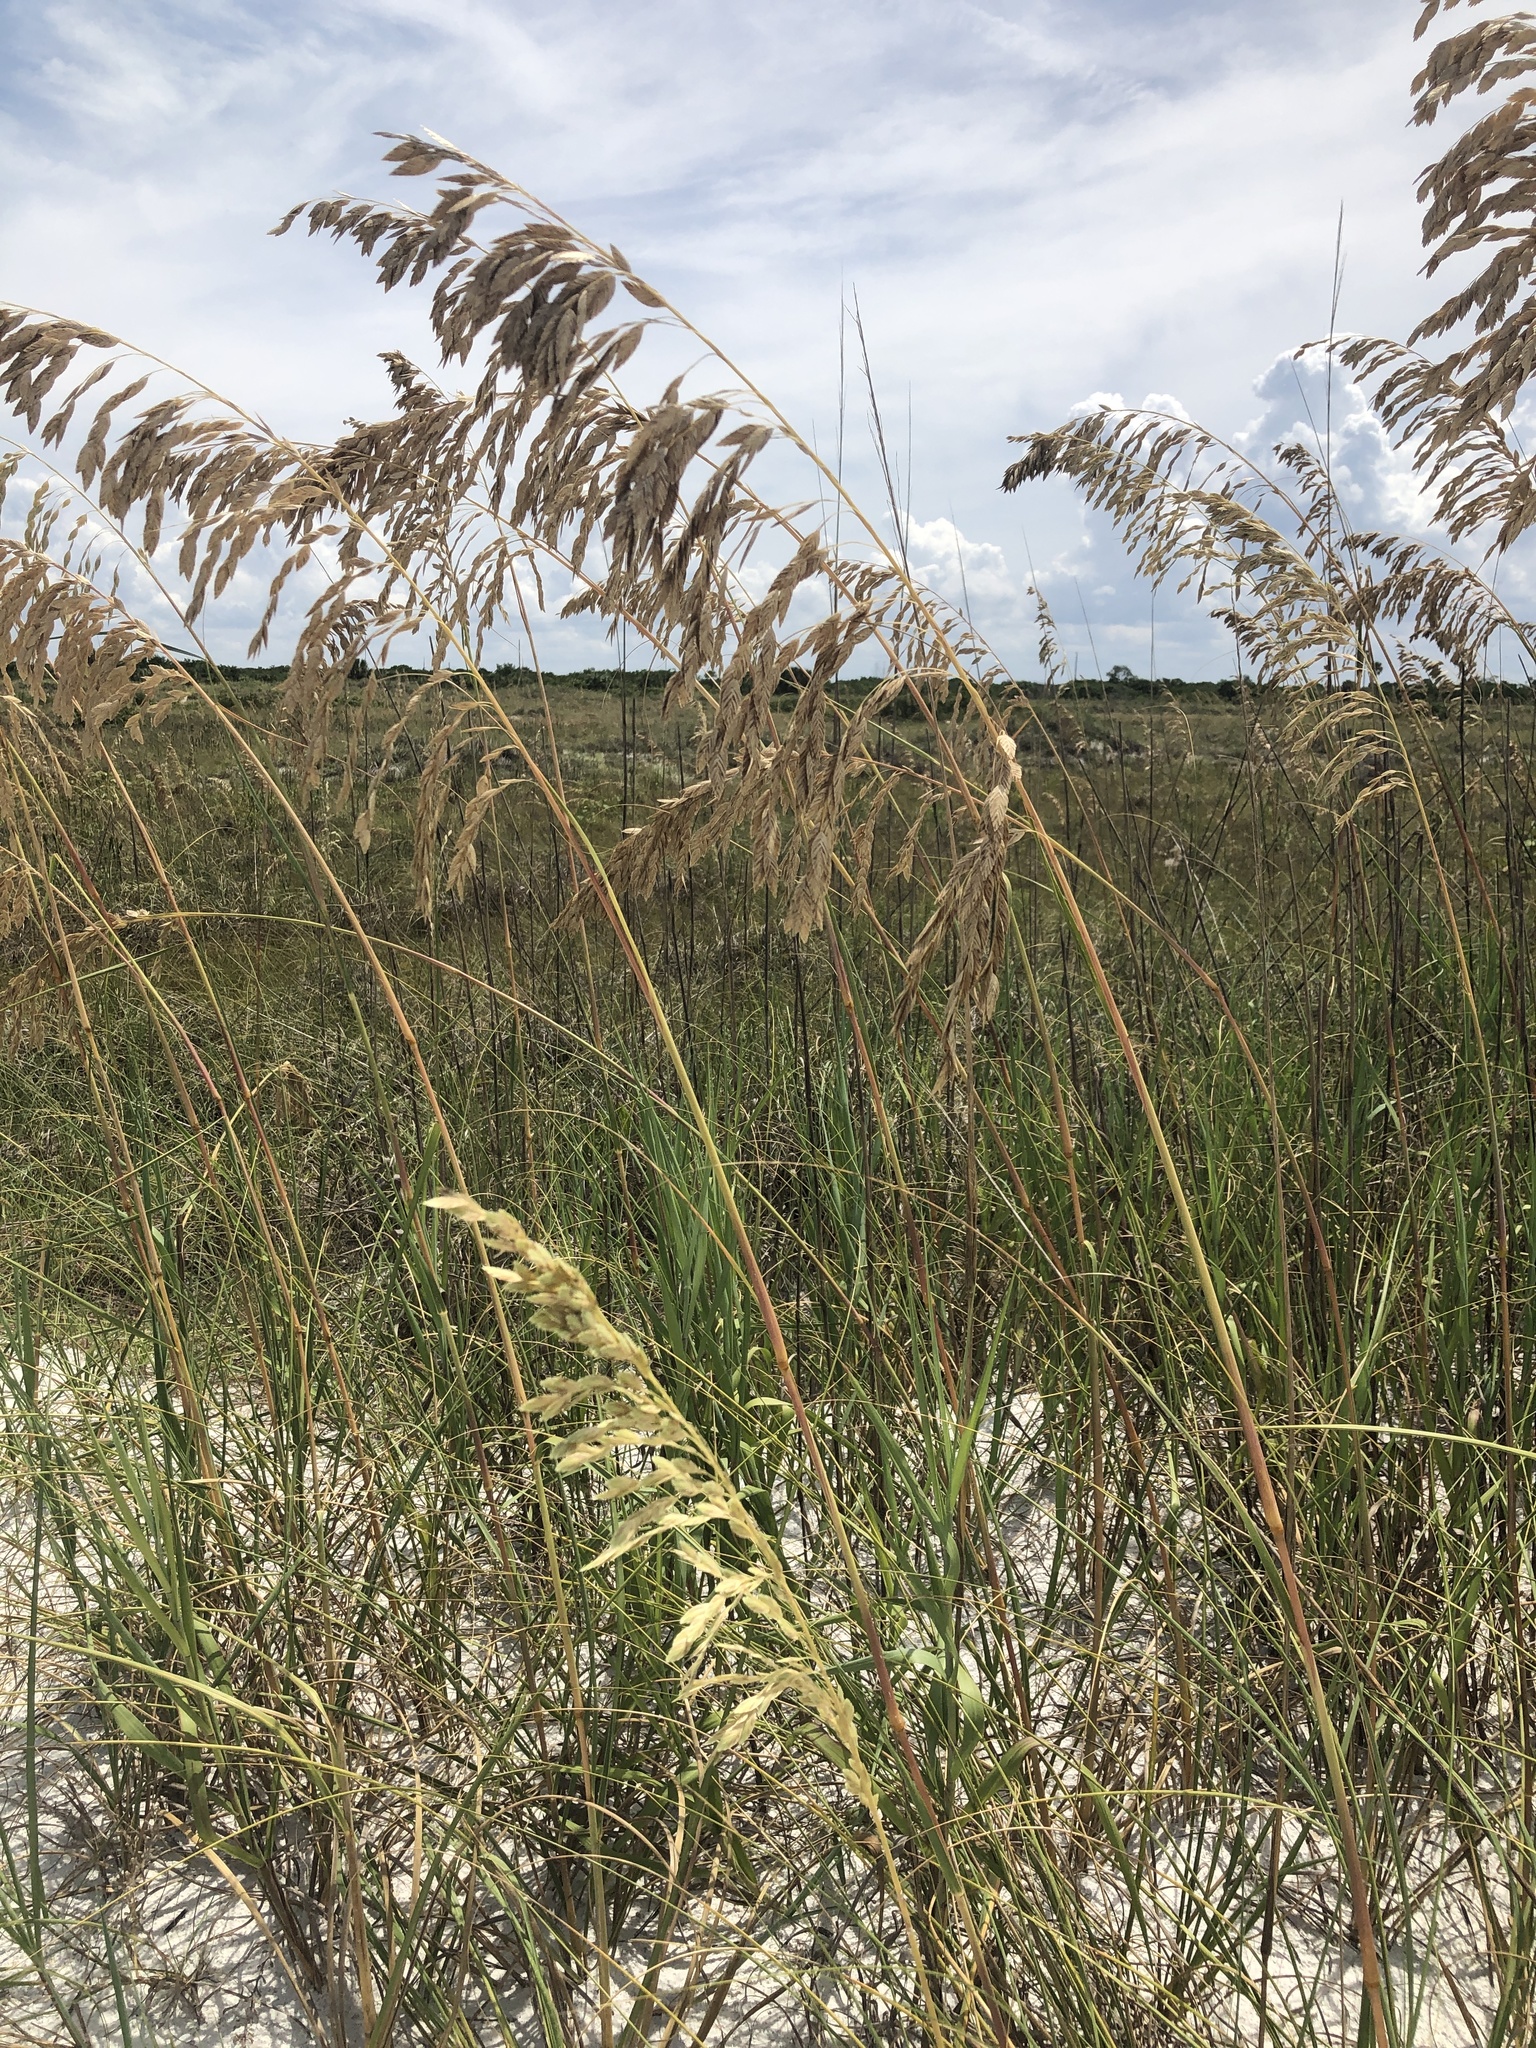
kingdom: Plantae
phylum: Tracheophyta
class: Liliopsida
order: Poales
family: Poaceae
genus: Uniola
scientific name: Uniola paniculata
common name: Seaside-oats
